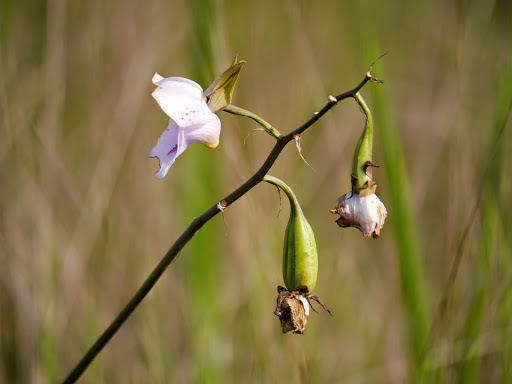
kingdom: Plantae
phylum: Tracheophyta
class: Liliopsida
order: Asparagales
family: Orchidaceae
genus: Eulophia
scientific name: Eulophia cucullata
